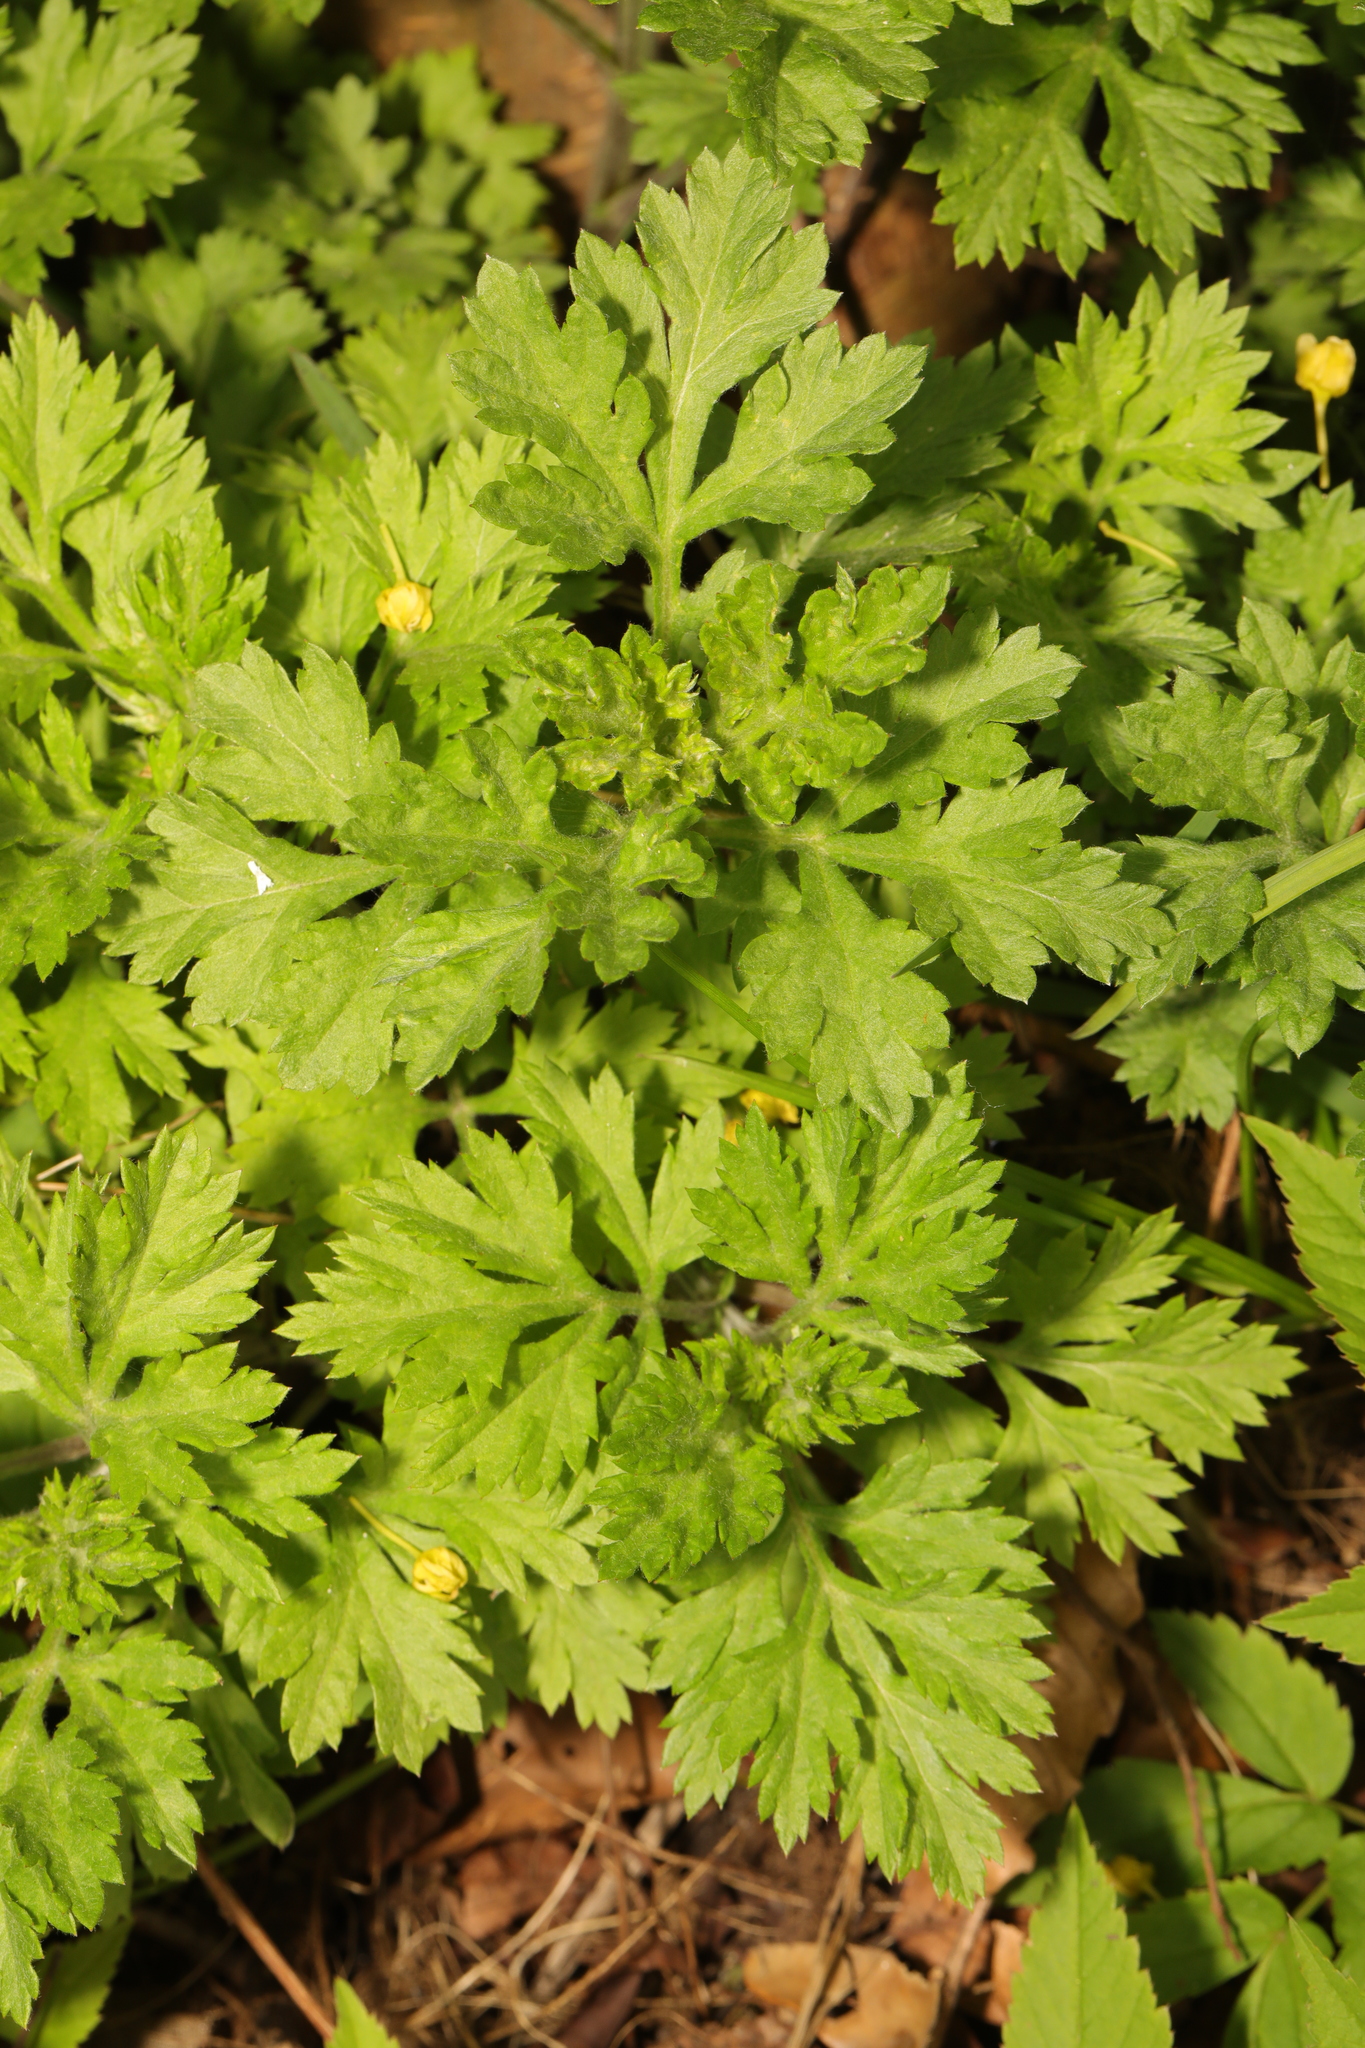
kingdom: Plantae
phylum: Tracheophyta
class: Magnoliopsida
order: Asterales
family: Asteraceae
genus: Artemisia
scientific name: Artemisia vulgaris
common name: Mugwort
